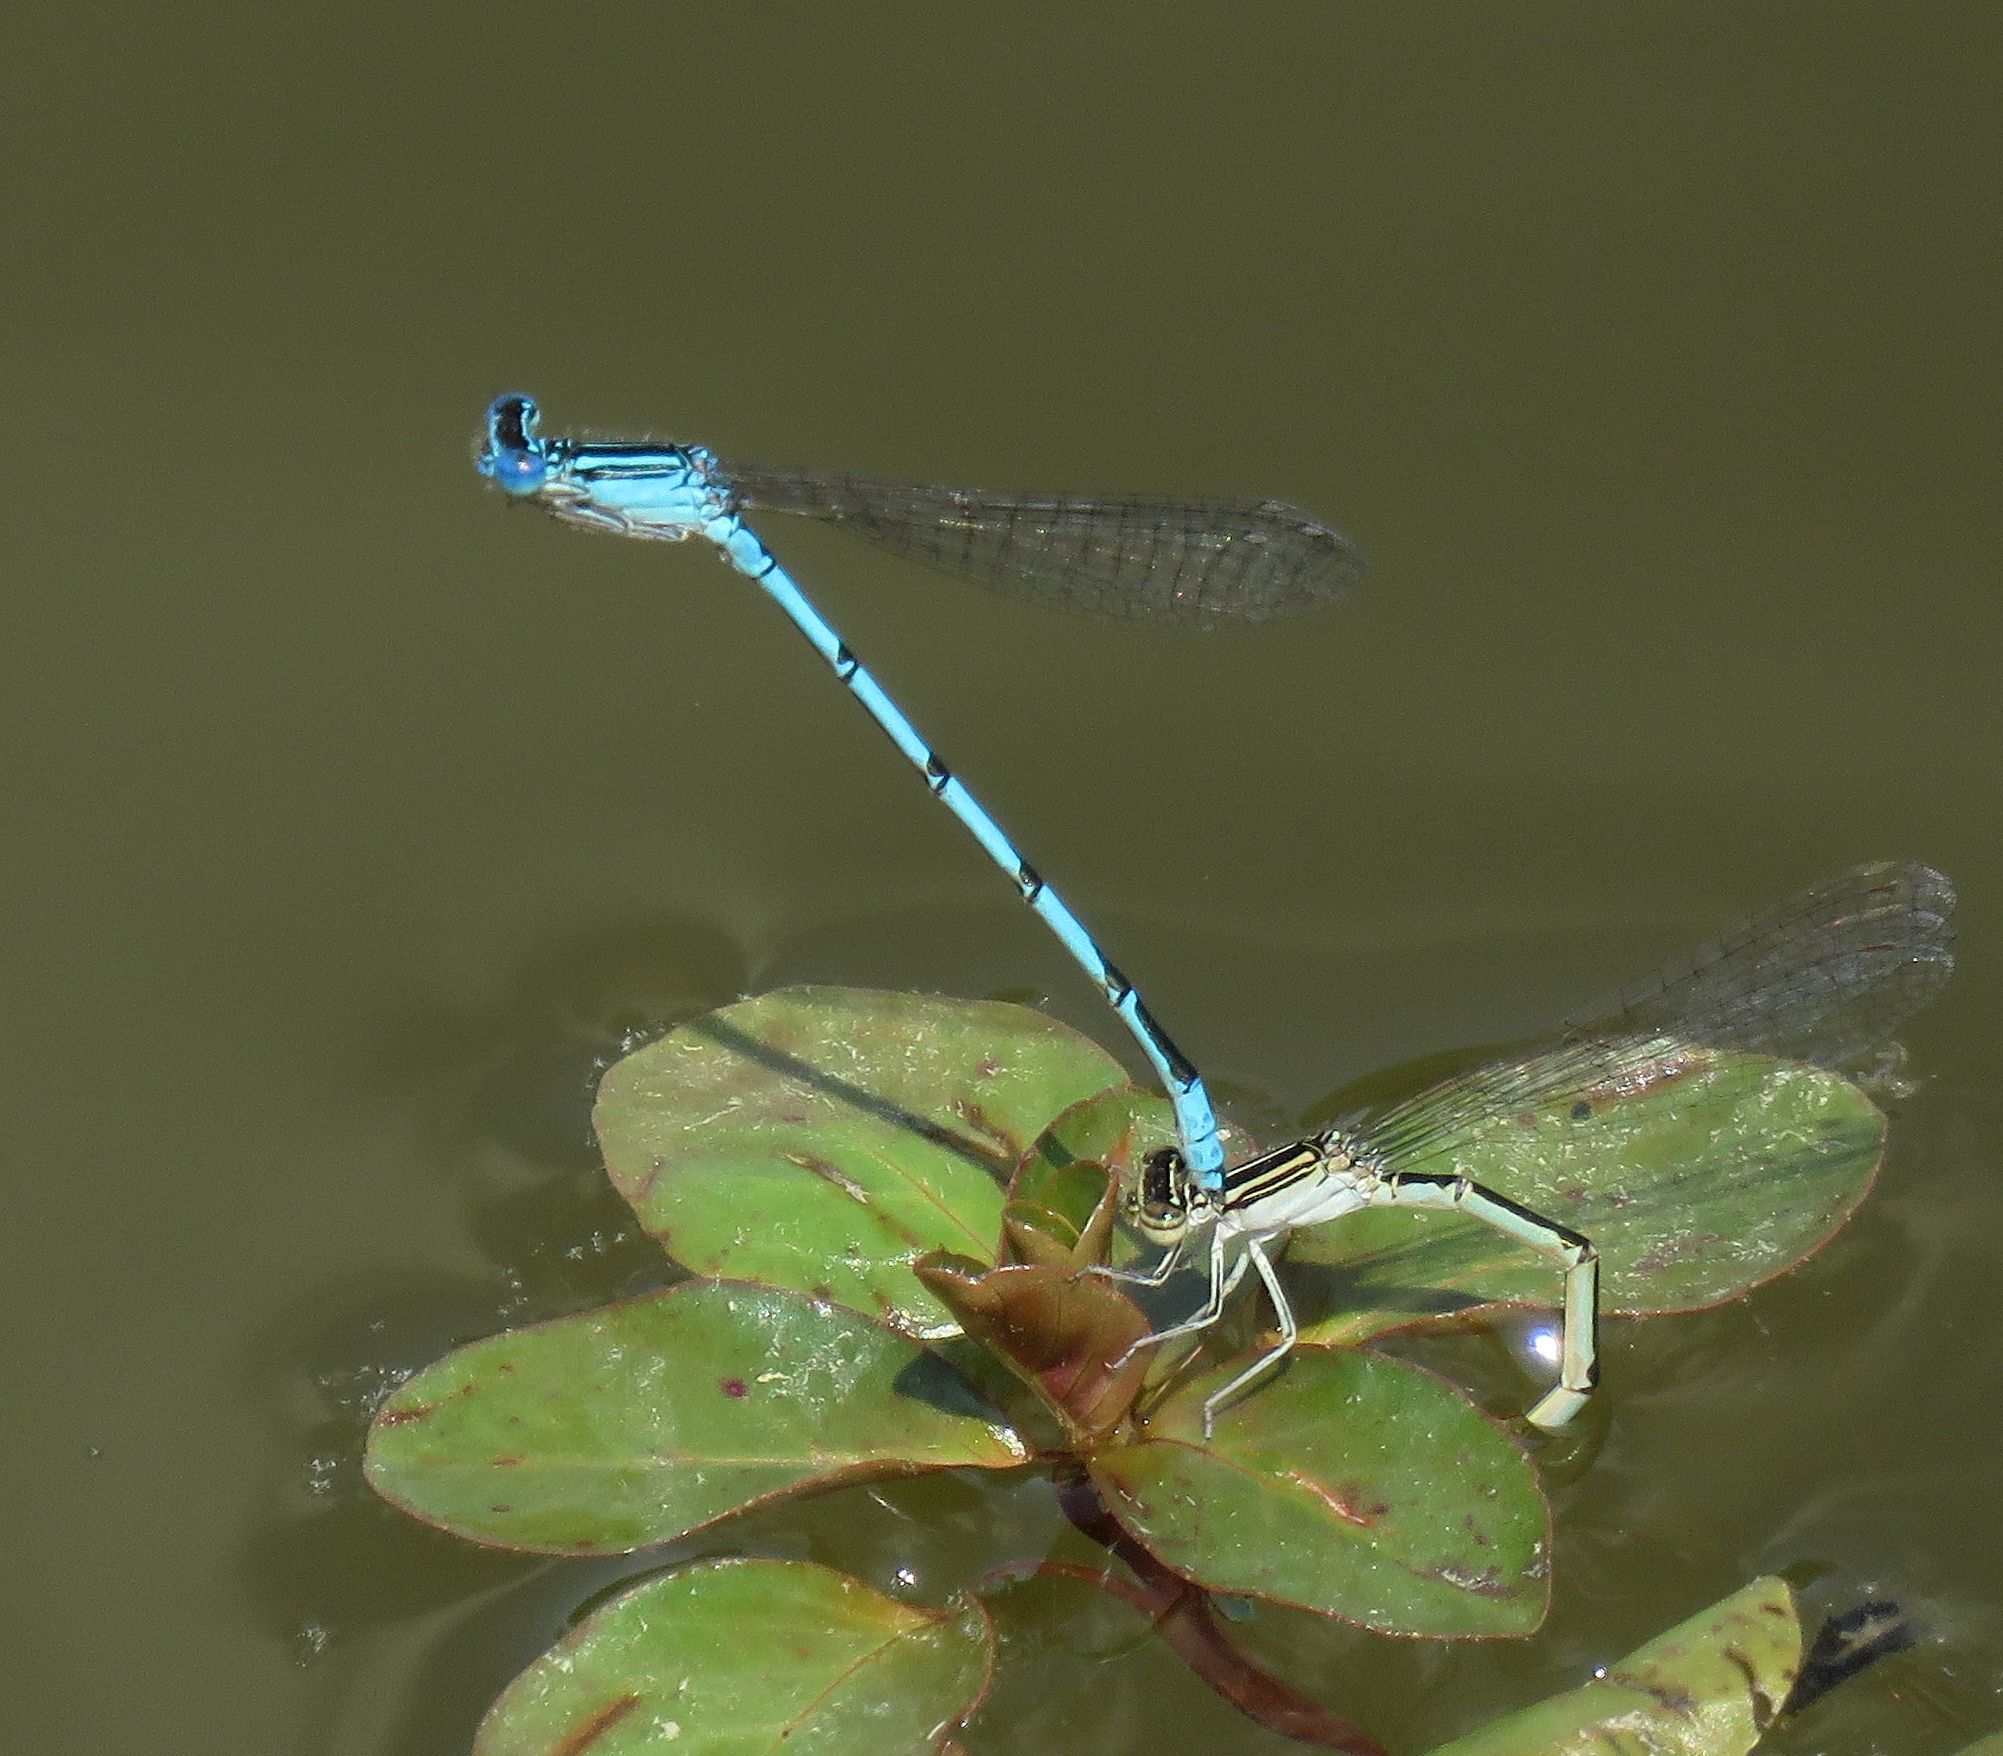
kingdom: Animalia
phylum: Arthropoda
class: Insecta
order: Odonata
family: Coenagrionidae
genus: Enallagma
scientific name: Enallagma basidens
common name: Double-striped bluet
